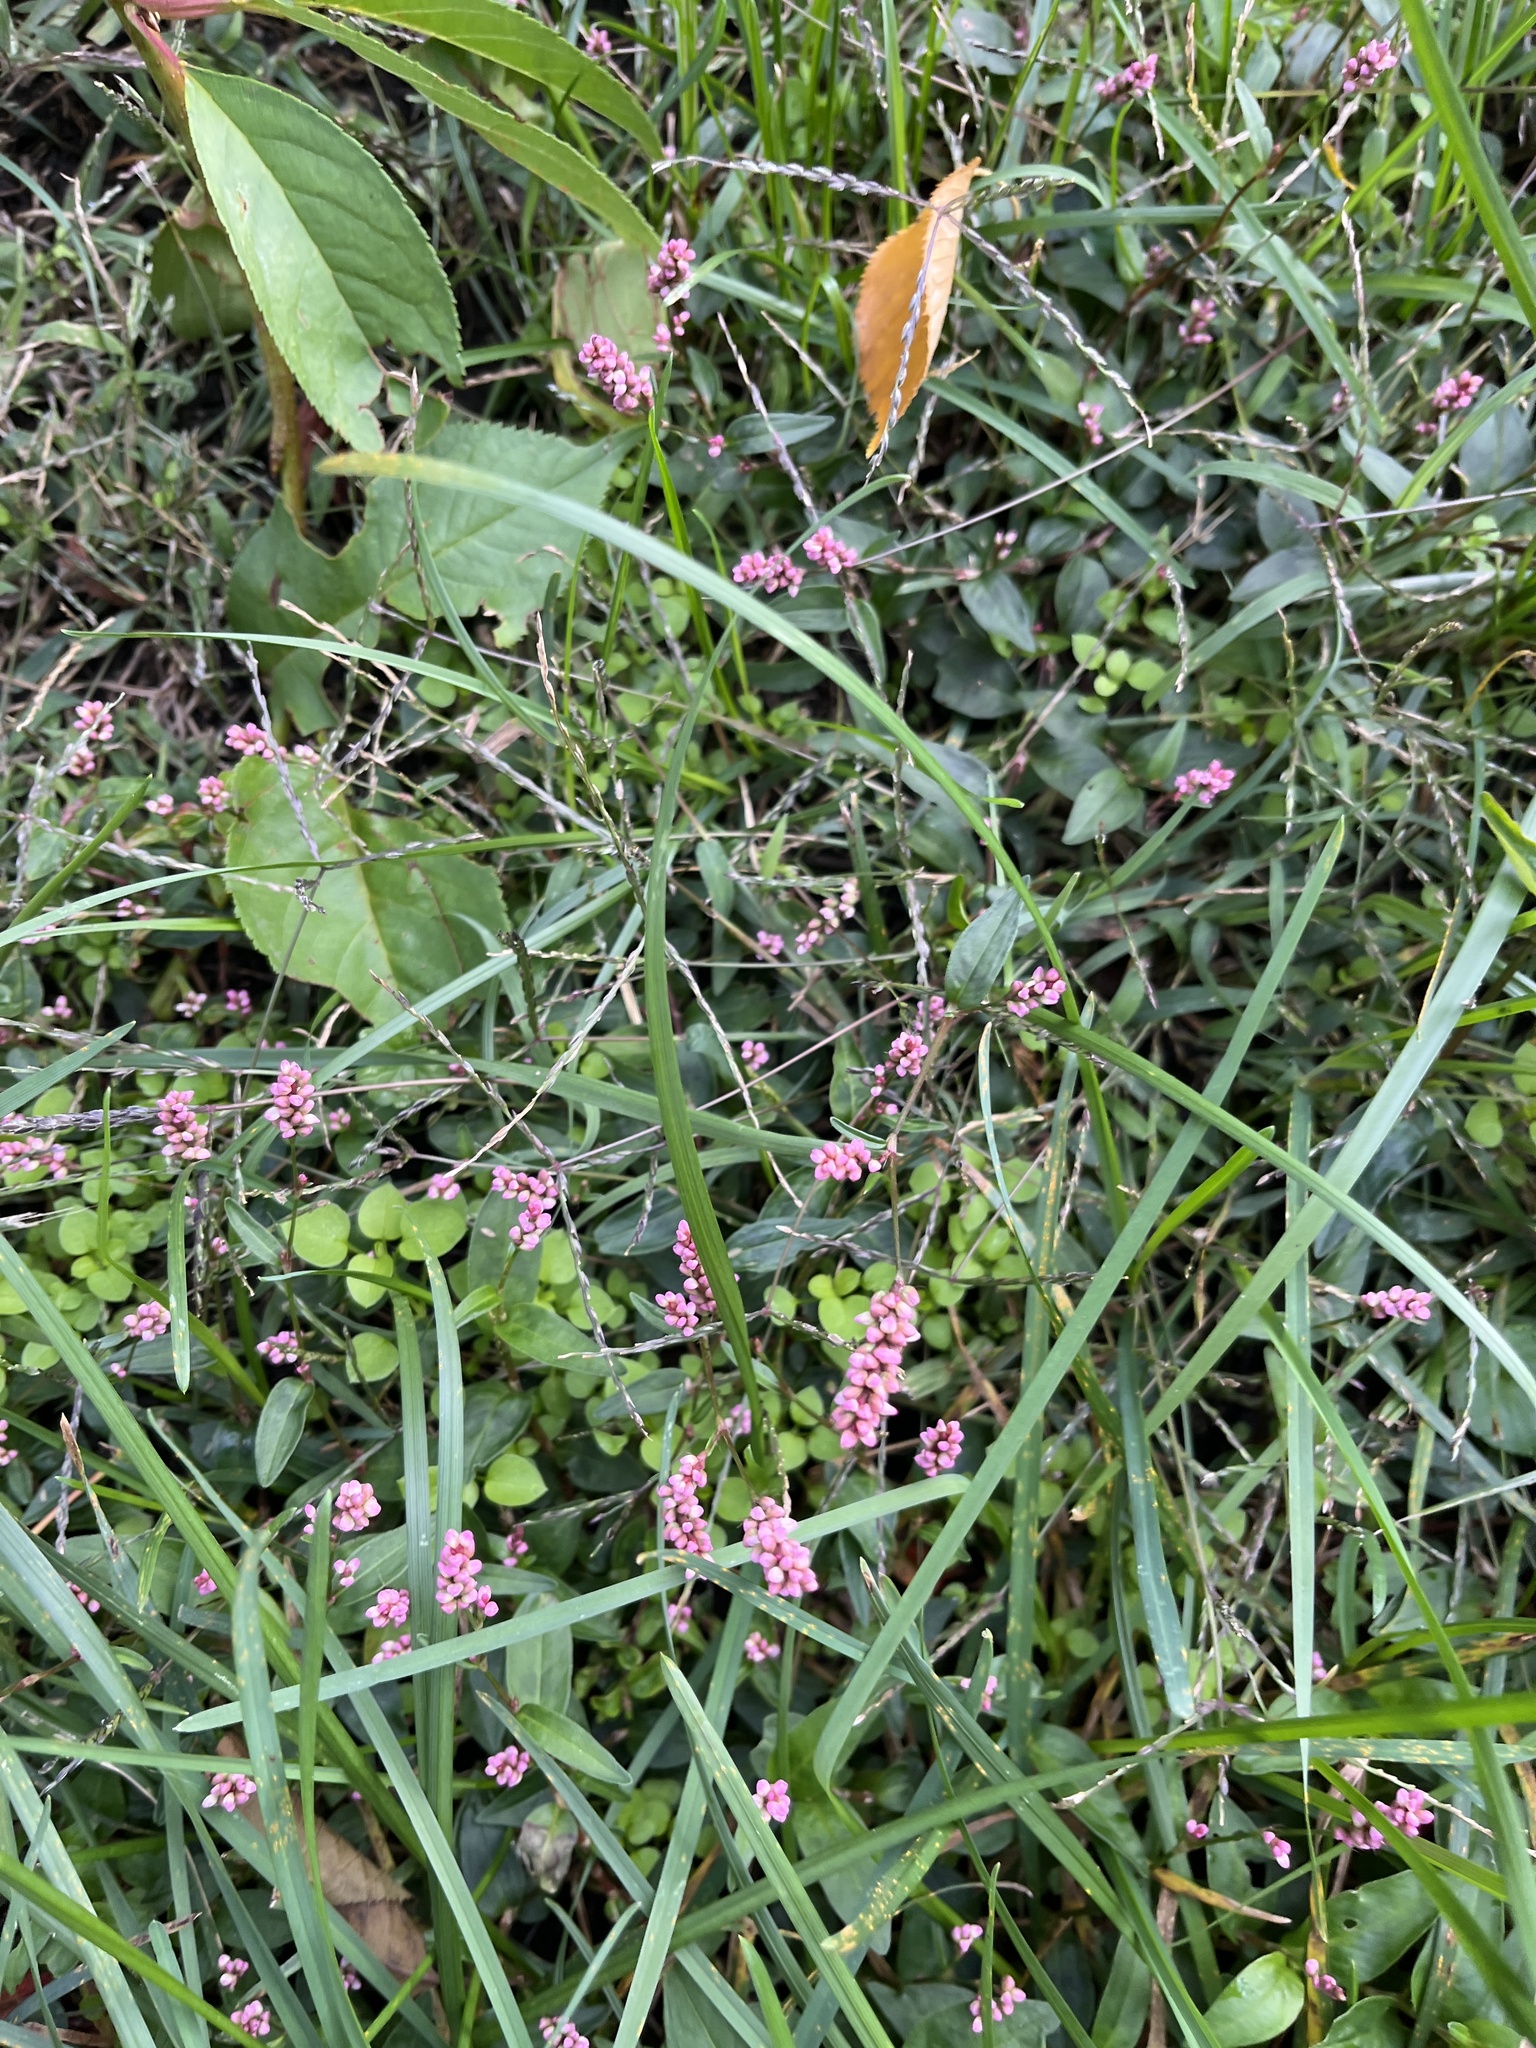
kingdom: Plantae
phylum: Tracheophyta
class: Magnoliopsida
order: Caryophyllales
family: Polygonaceae
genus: Persicaria
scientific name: Persicaria longiseta
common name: Bristly lady's-thumb
